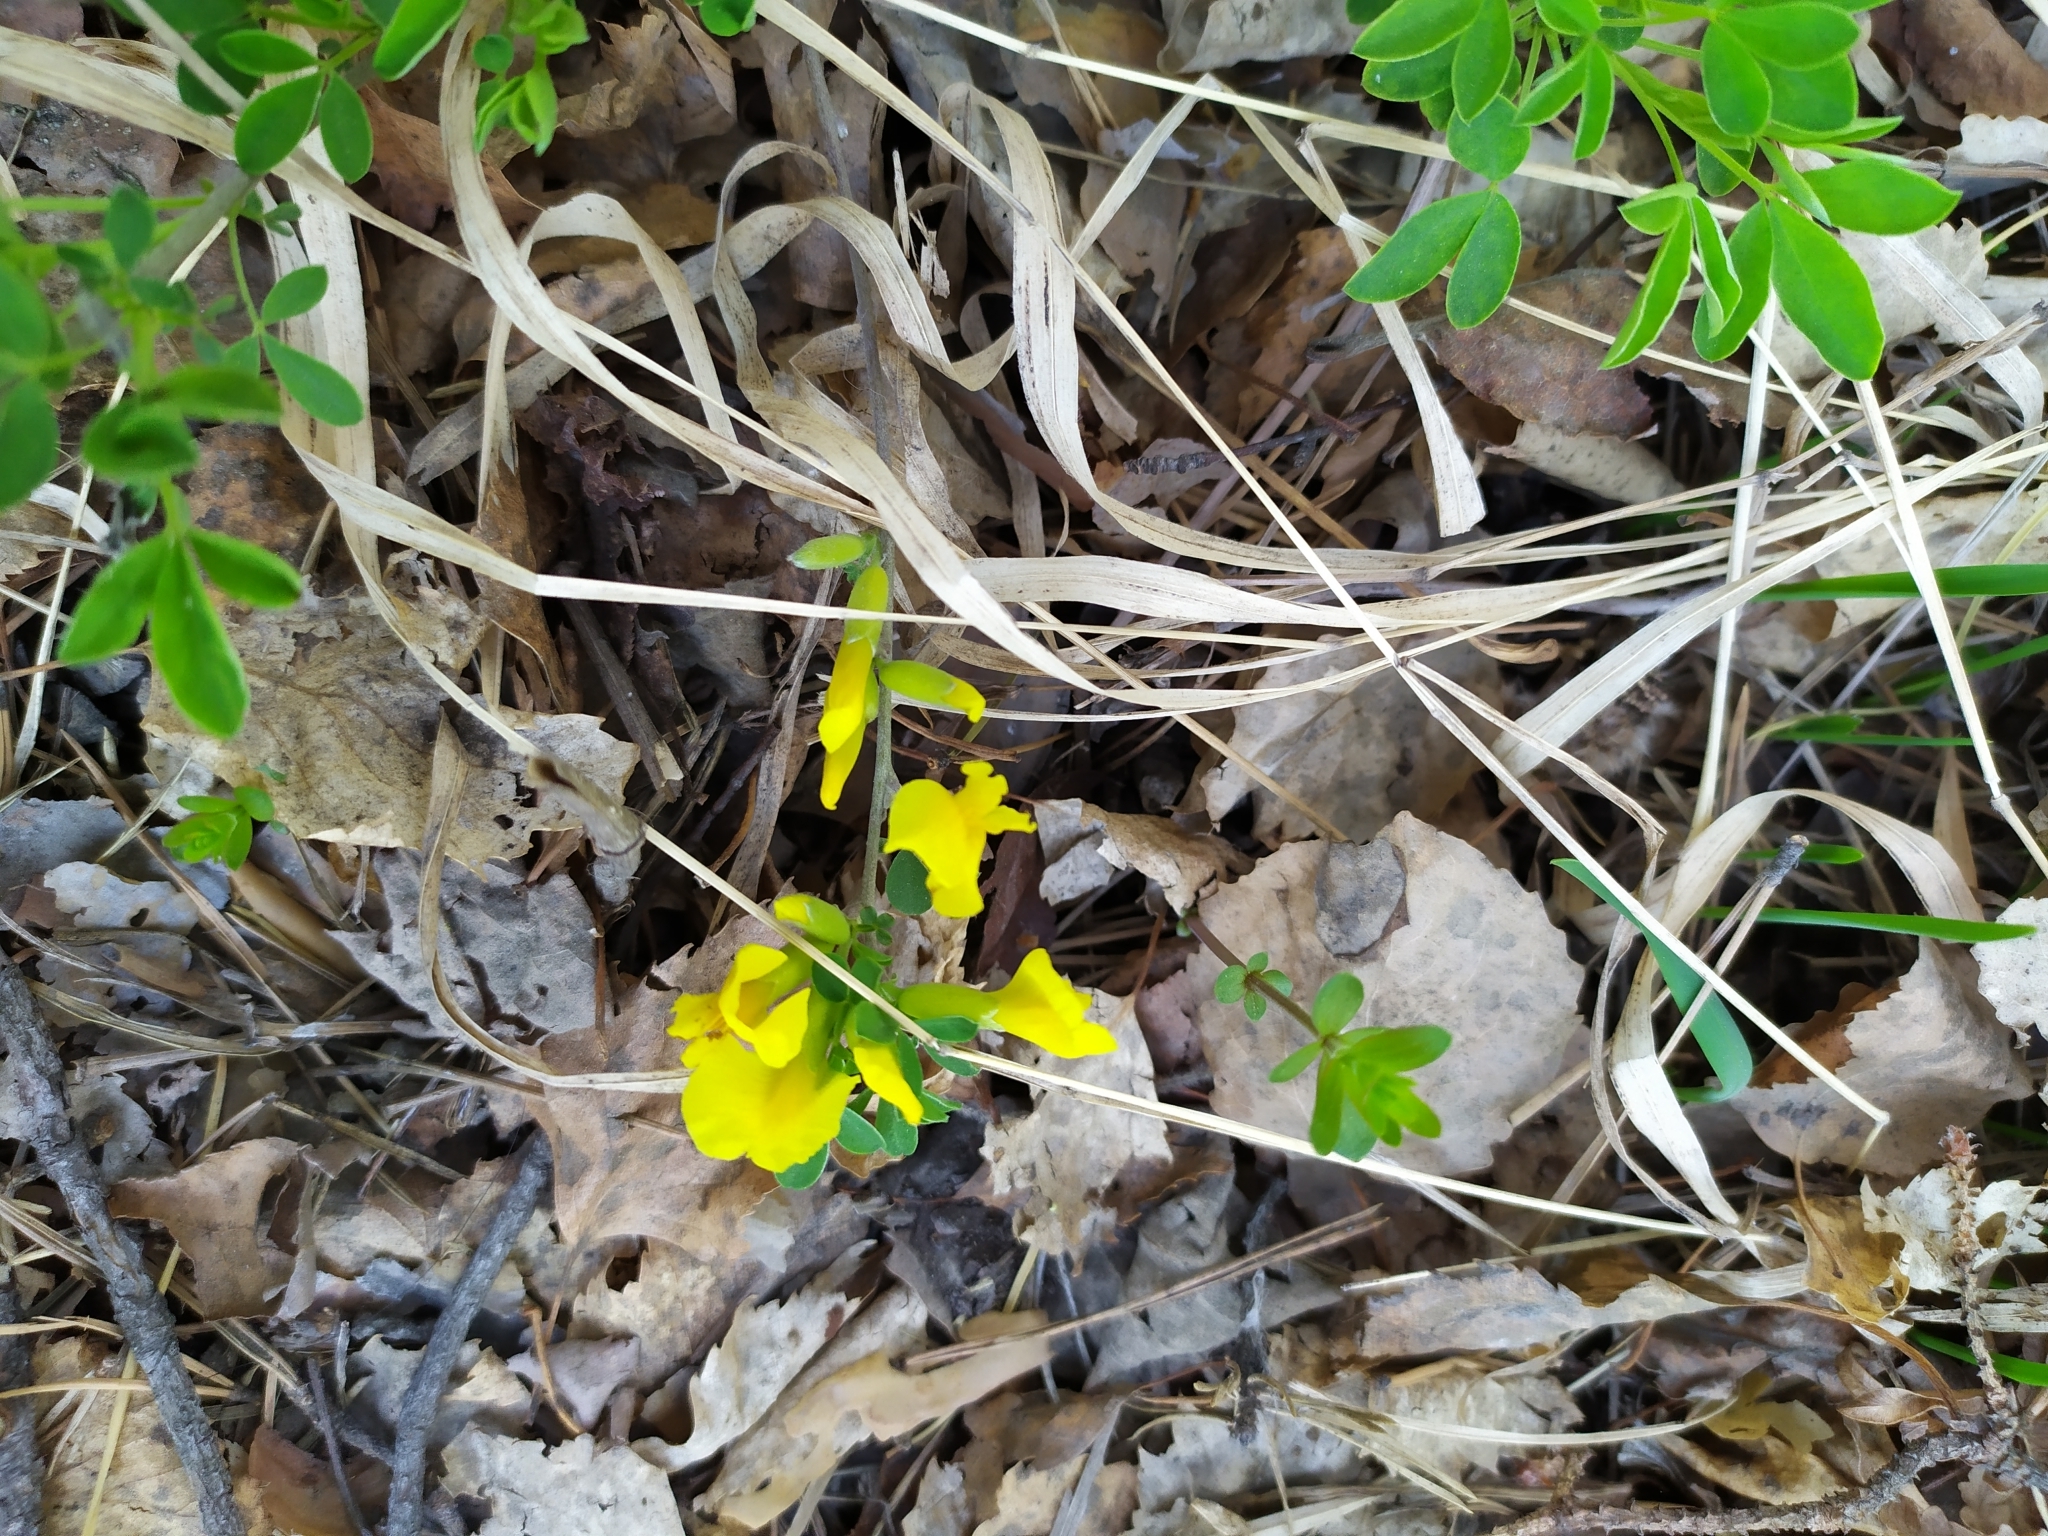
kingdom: Plantae
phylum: Tracheophyta
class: Magnoliopsida
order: Fabales
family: Fabaceae
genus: Chamaecytisus
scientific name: Chamaecytisus ruthenicus
